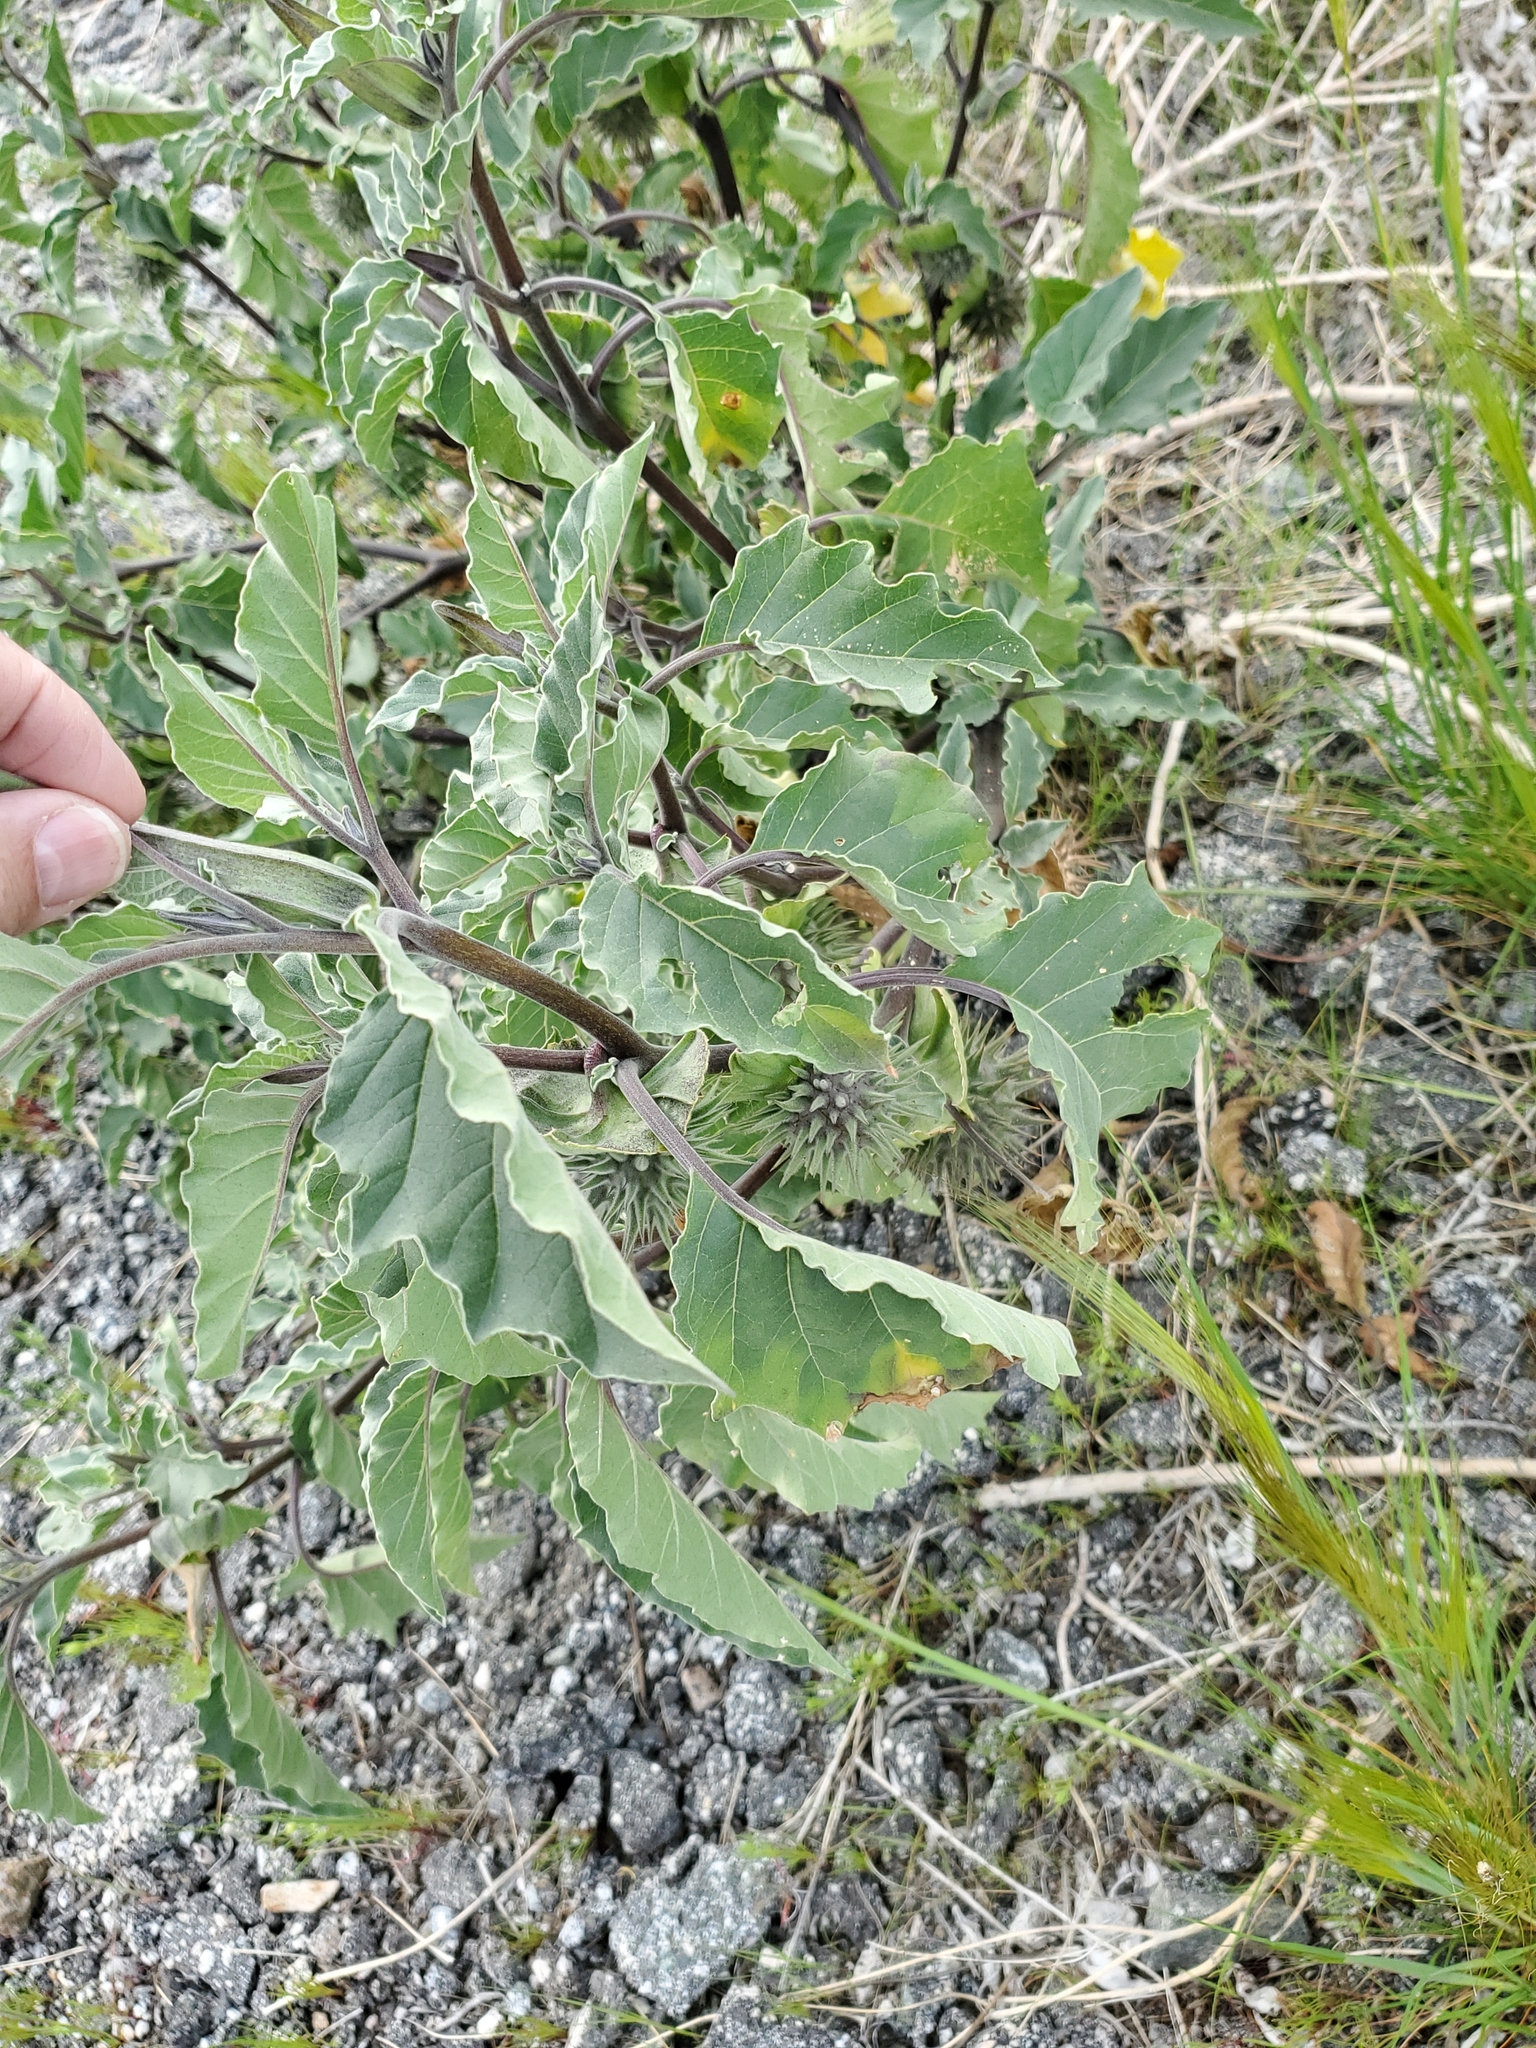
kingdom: Plantae
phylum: Tracheophyta
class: Magnoliopsida
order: Solanales
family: Solanaceae
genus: Datura
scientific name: Datura discolor
